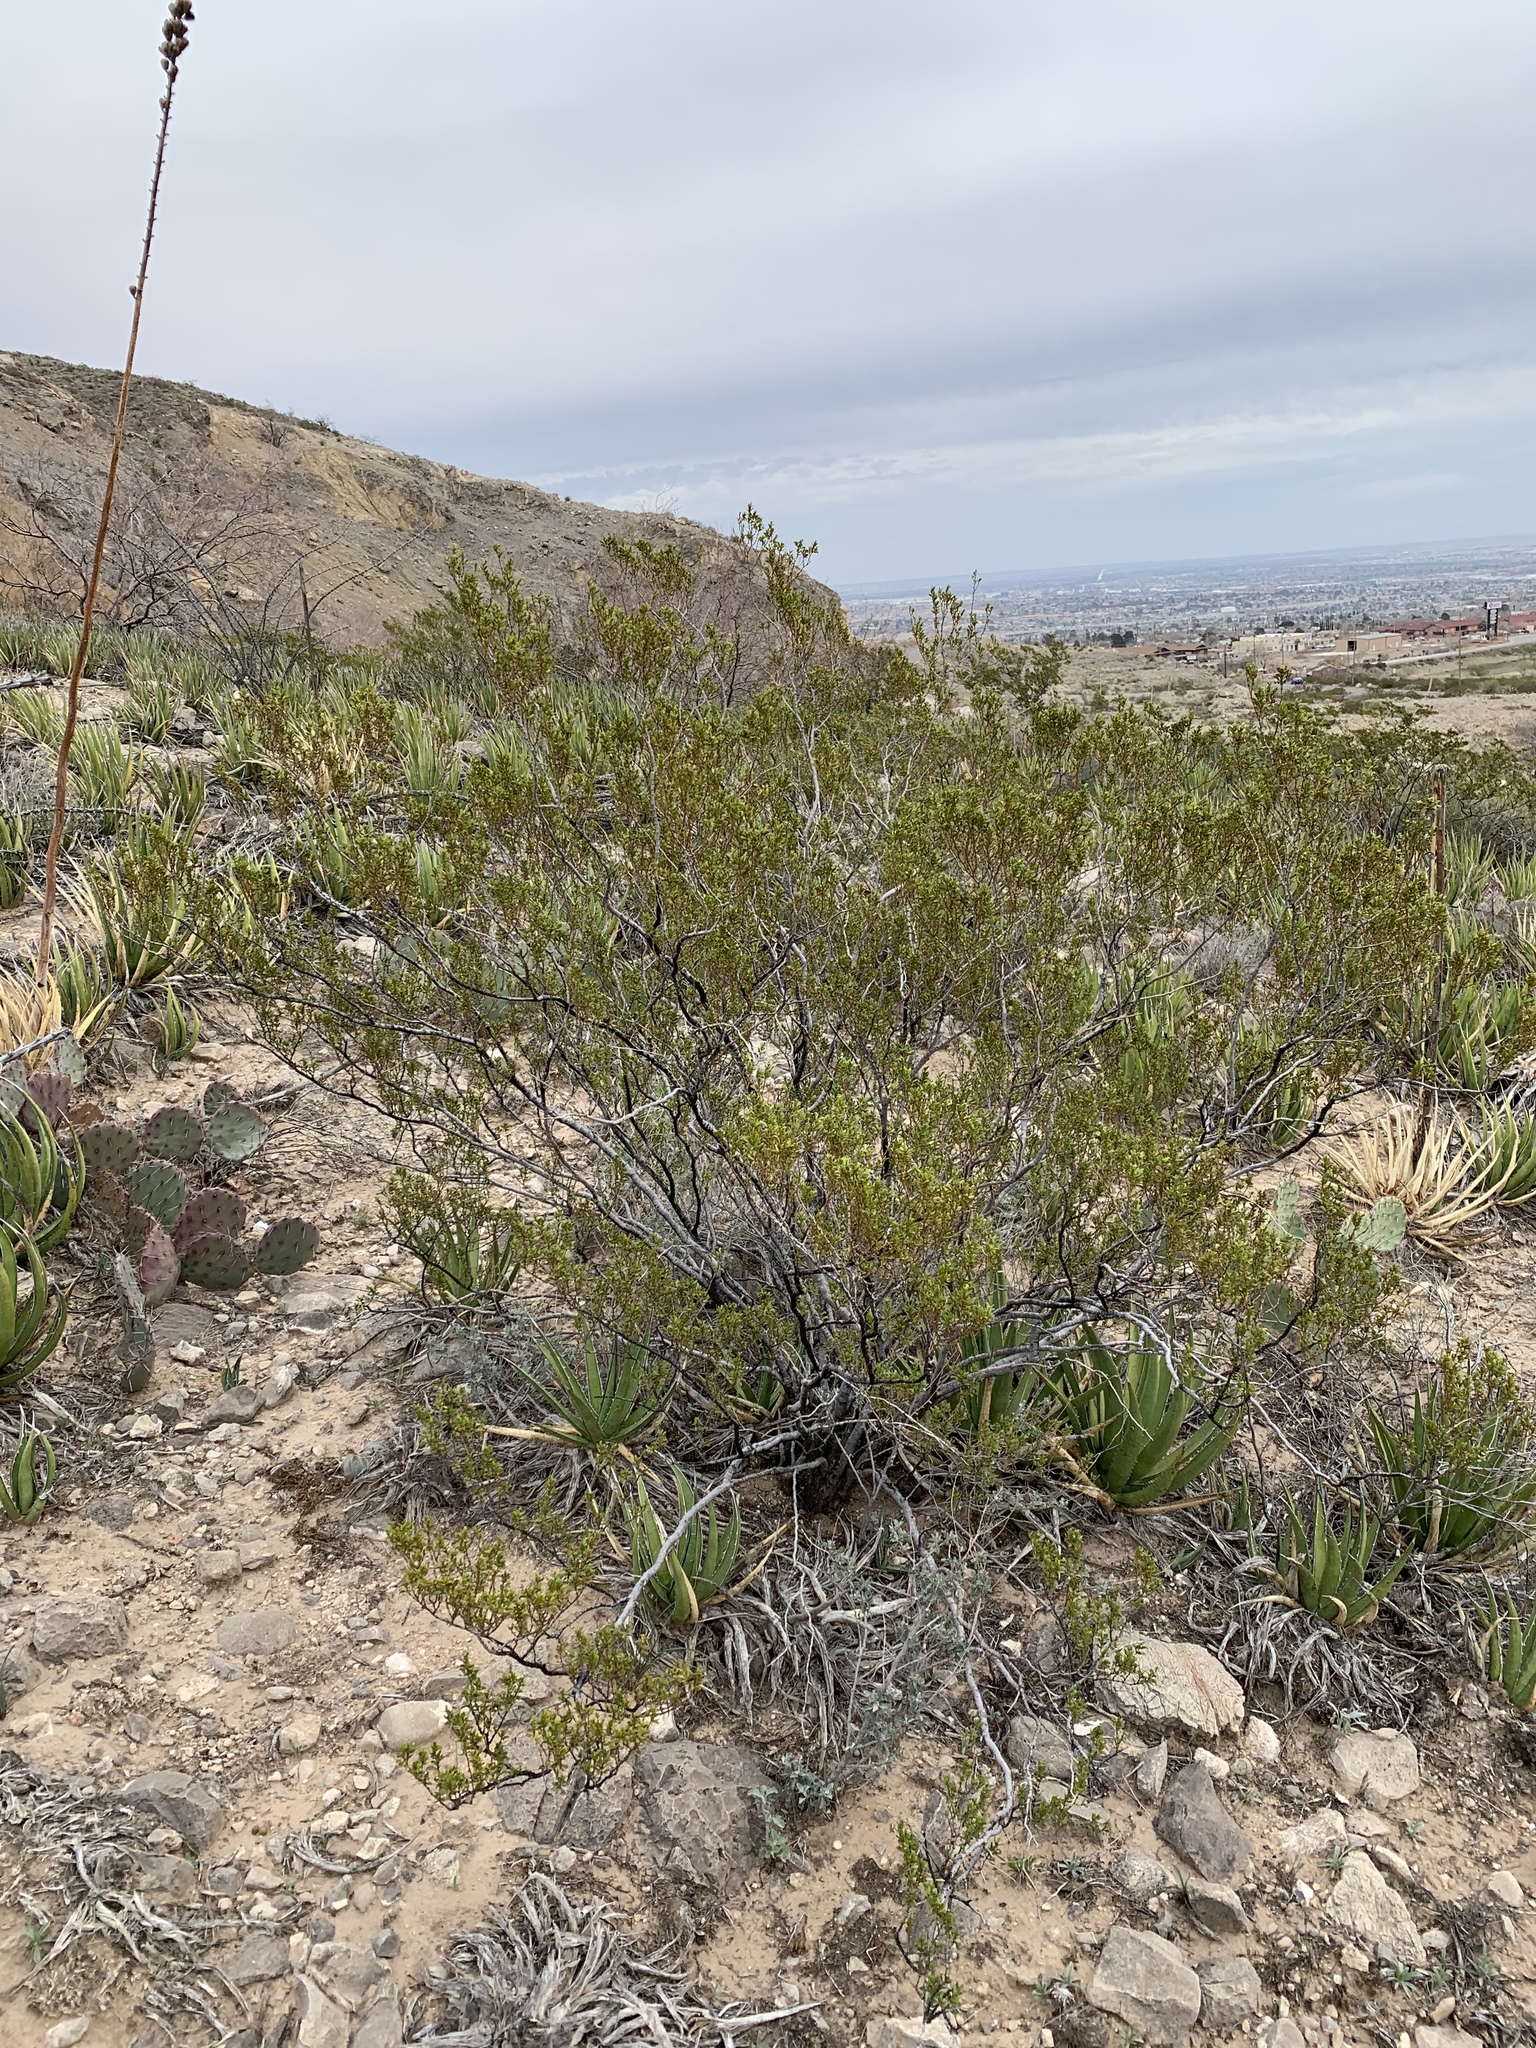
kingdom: Plantae
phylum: Tracheophyta
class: Magnoliopsida
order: Zygophyllales
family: Zygophyllaceae
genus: Larrea
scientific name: Larrea tridentata
